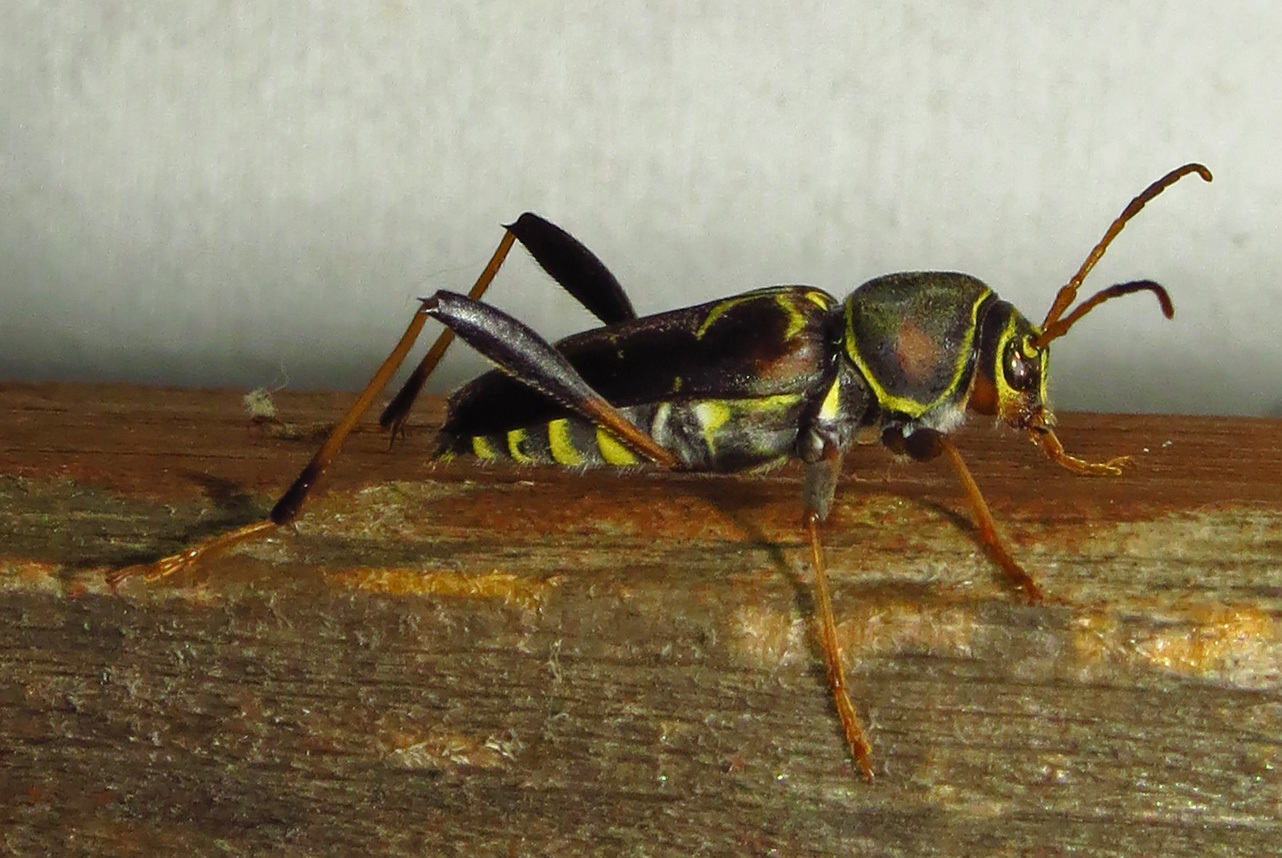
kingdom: Animalia
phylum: Arthropoda
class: Insecta
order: Coleoptera
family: Cerambycidae
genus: Neoclytus
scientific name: Neoclytus mucronatus
